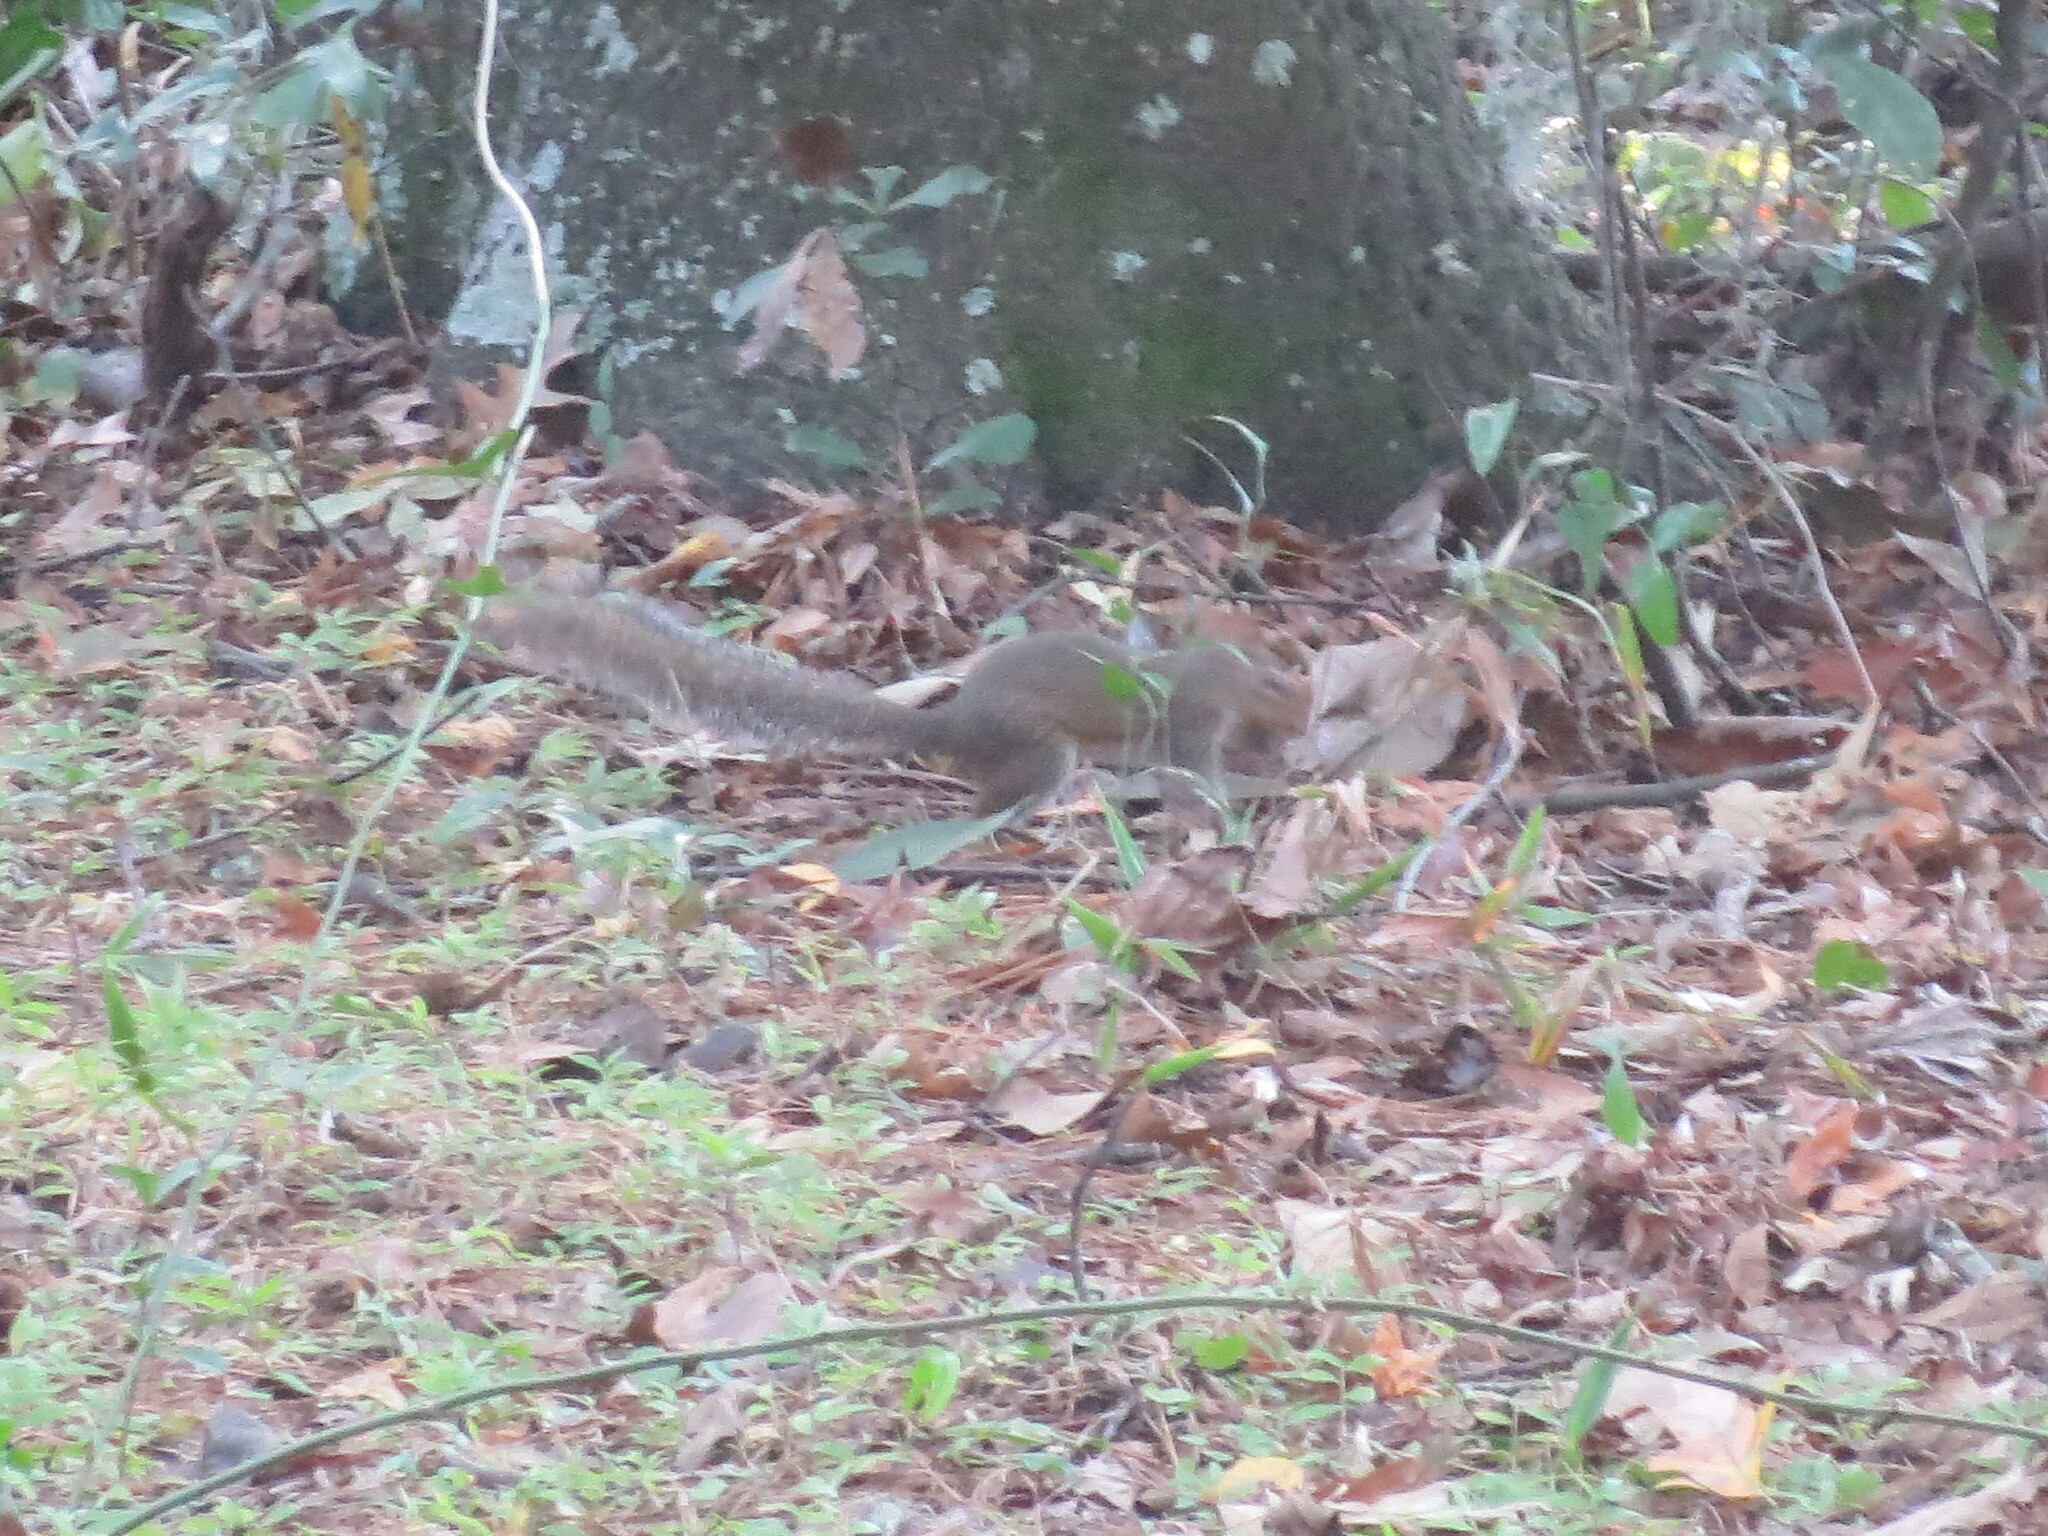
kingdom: Animalia
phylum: Chordata
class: Mammalia
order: Rodentia
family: Sciuridae
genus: Sciurus
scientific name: Sciurus carolinensis
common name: Eastern gray squirrel
